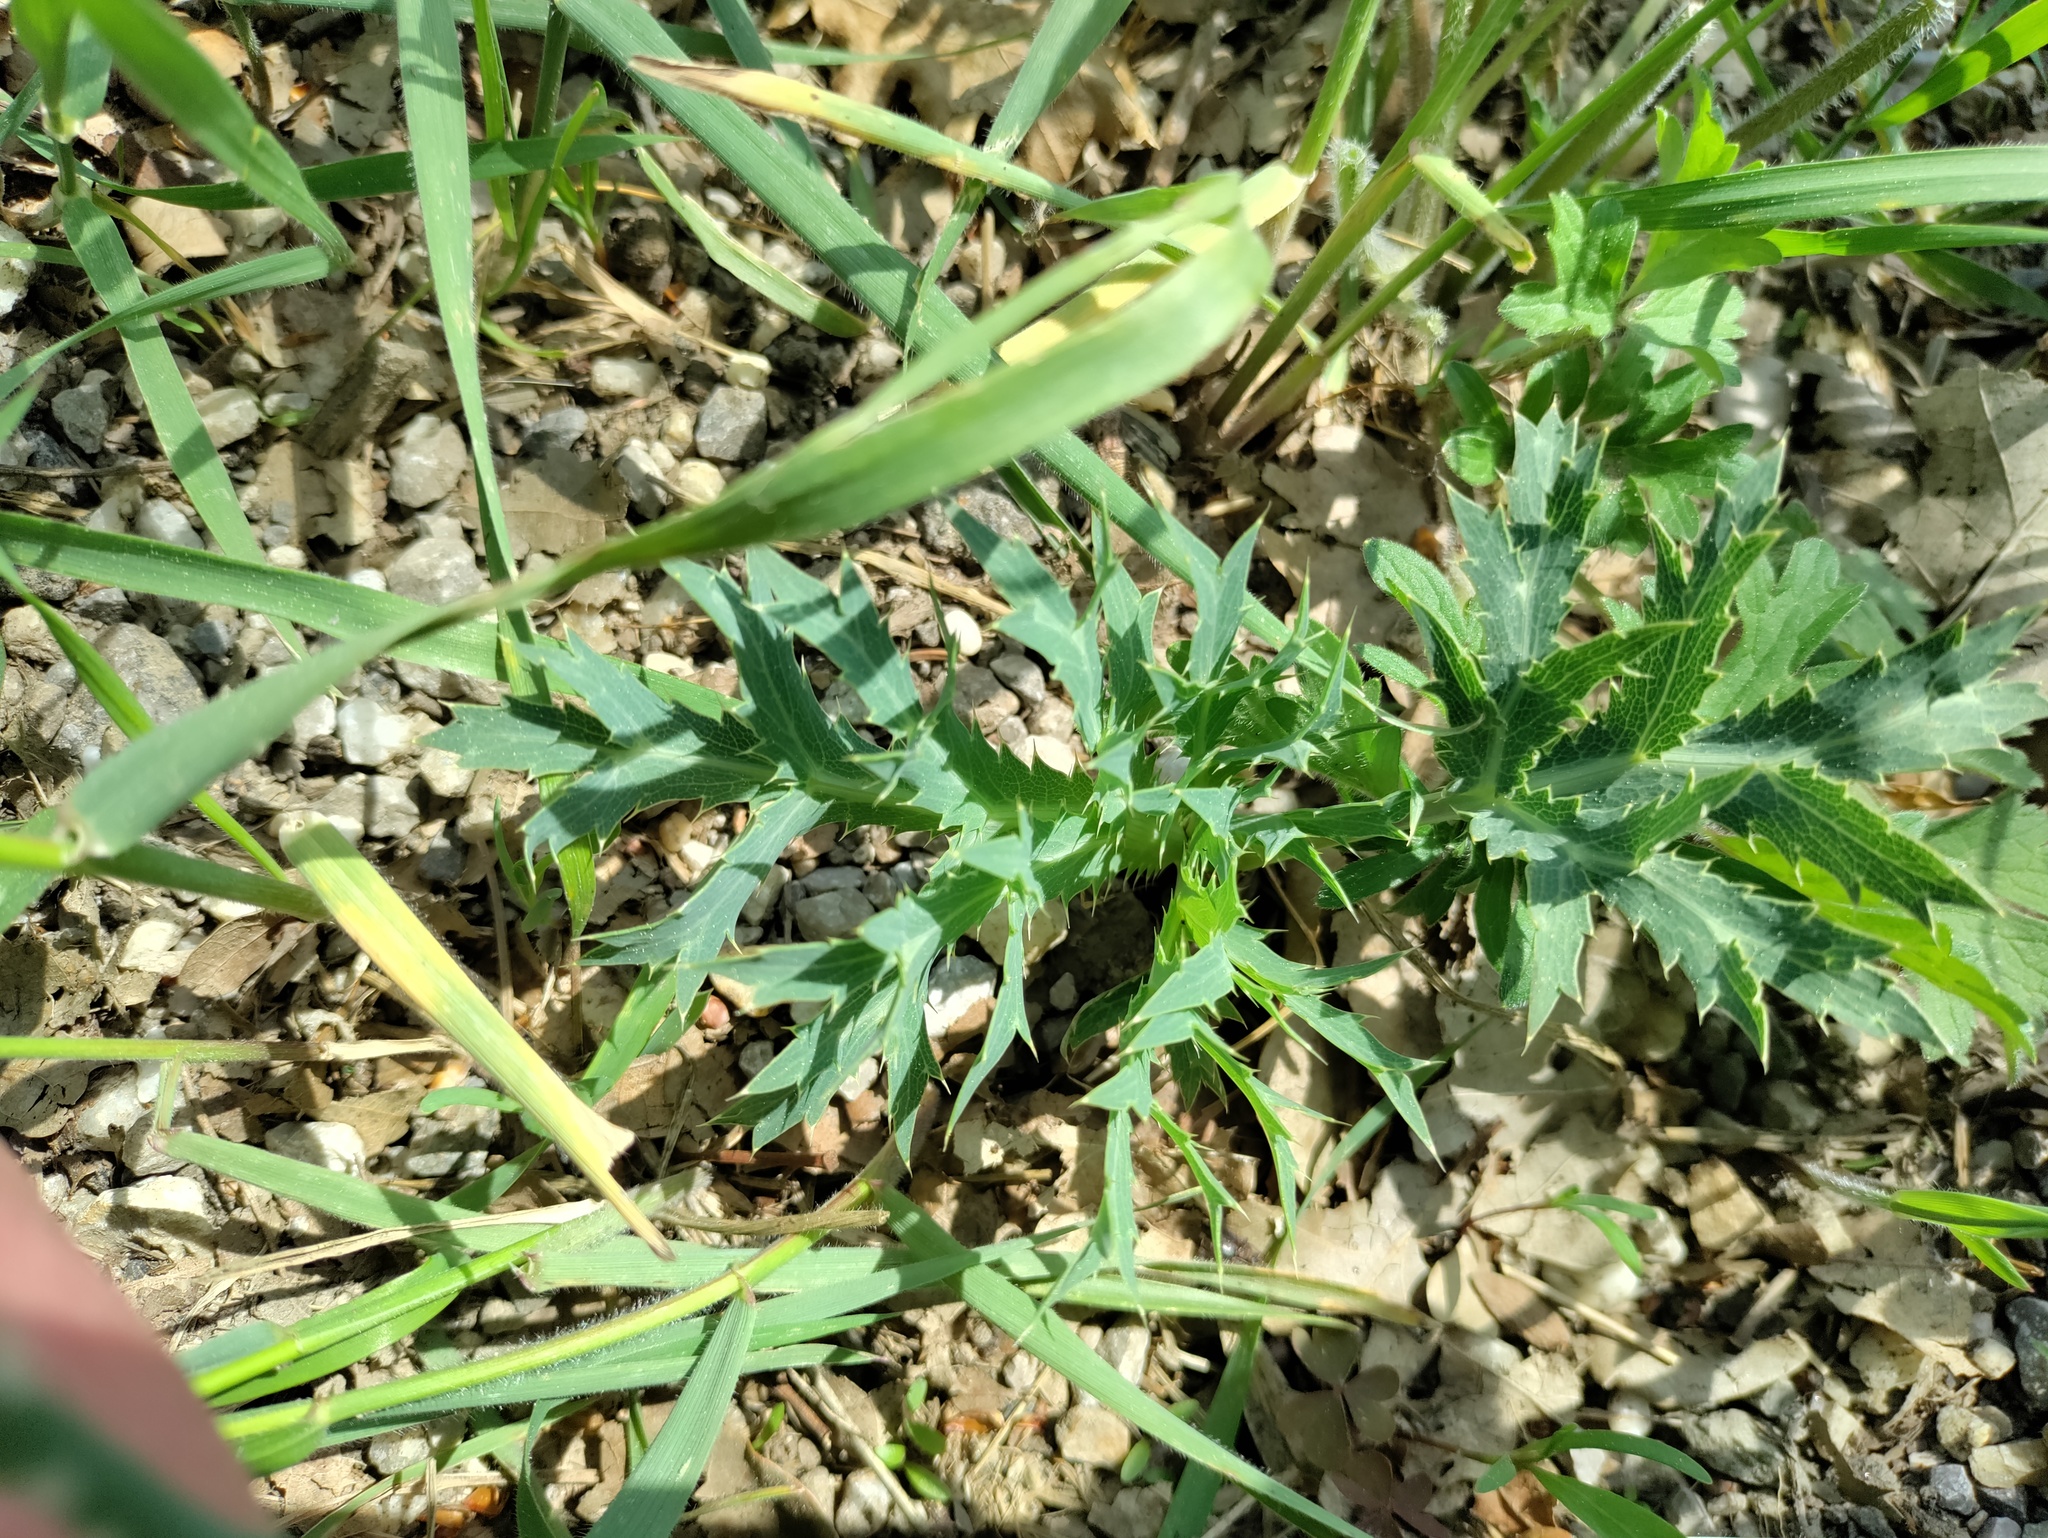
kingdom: Plantae
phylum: Tracheophyta
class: Magnoliopsida
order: Apiales
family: Apiaceae
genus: Eryngium
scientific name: Eryngium campestre
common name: Field eryngo
